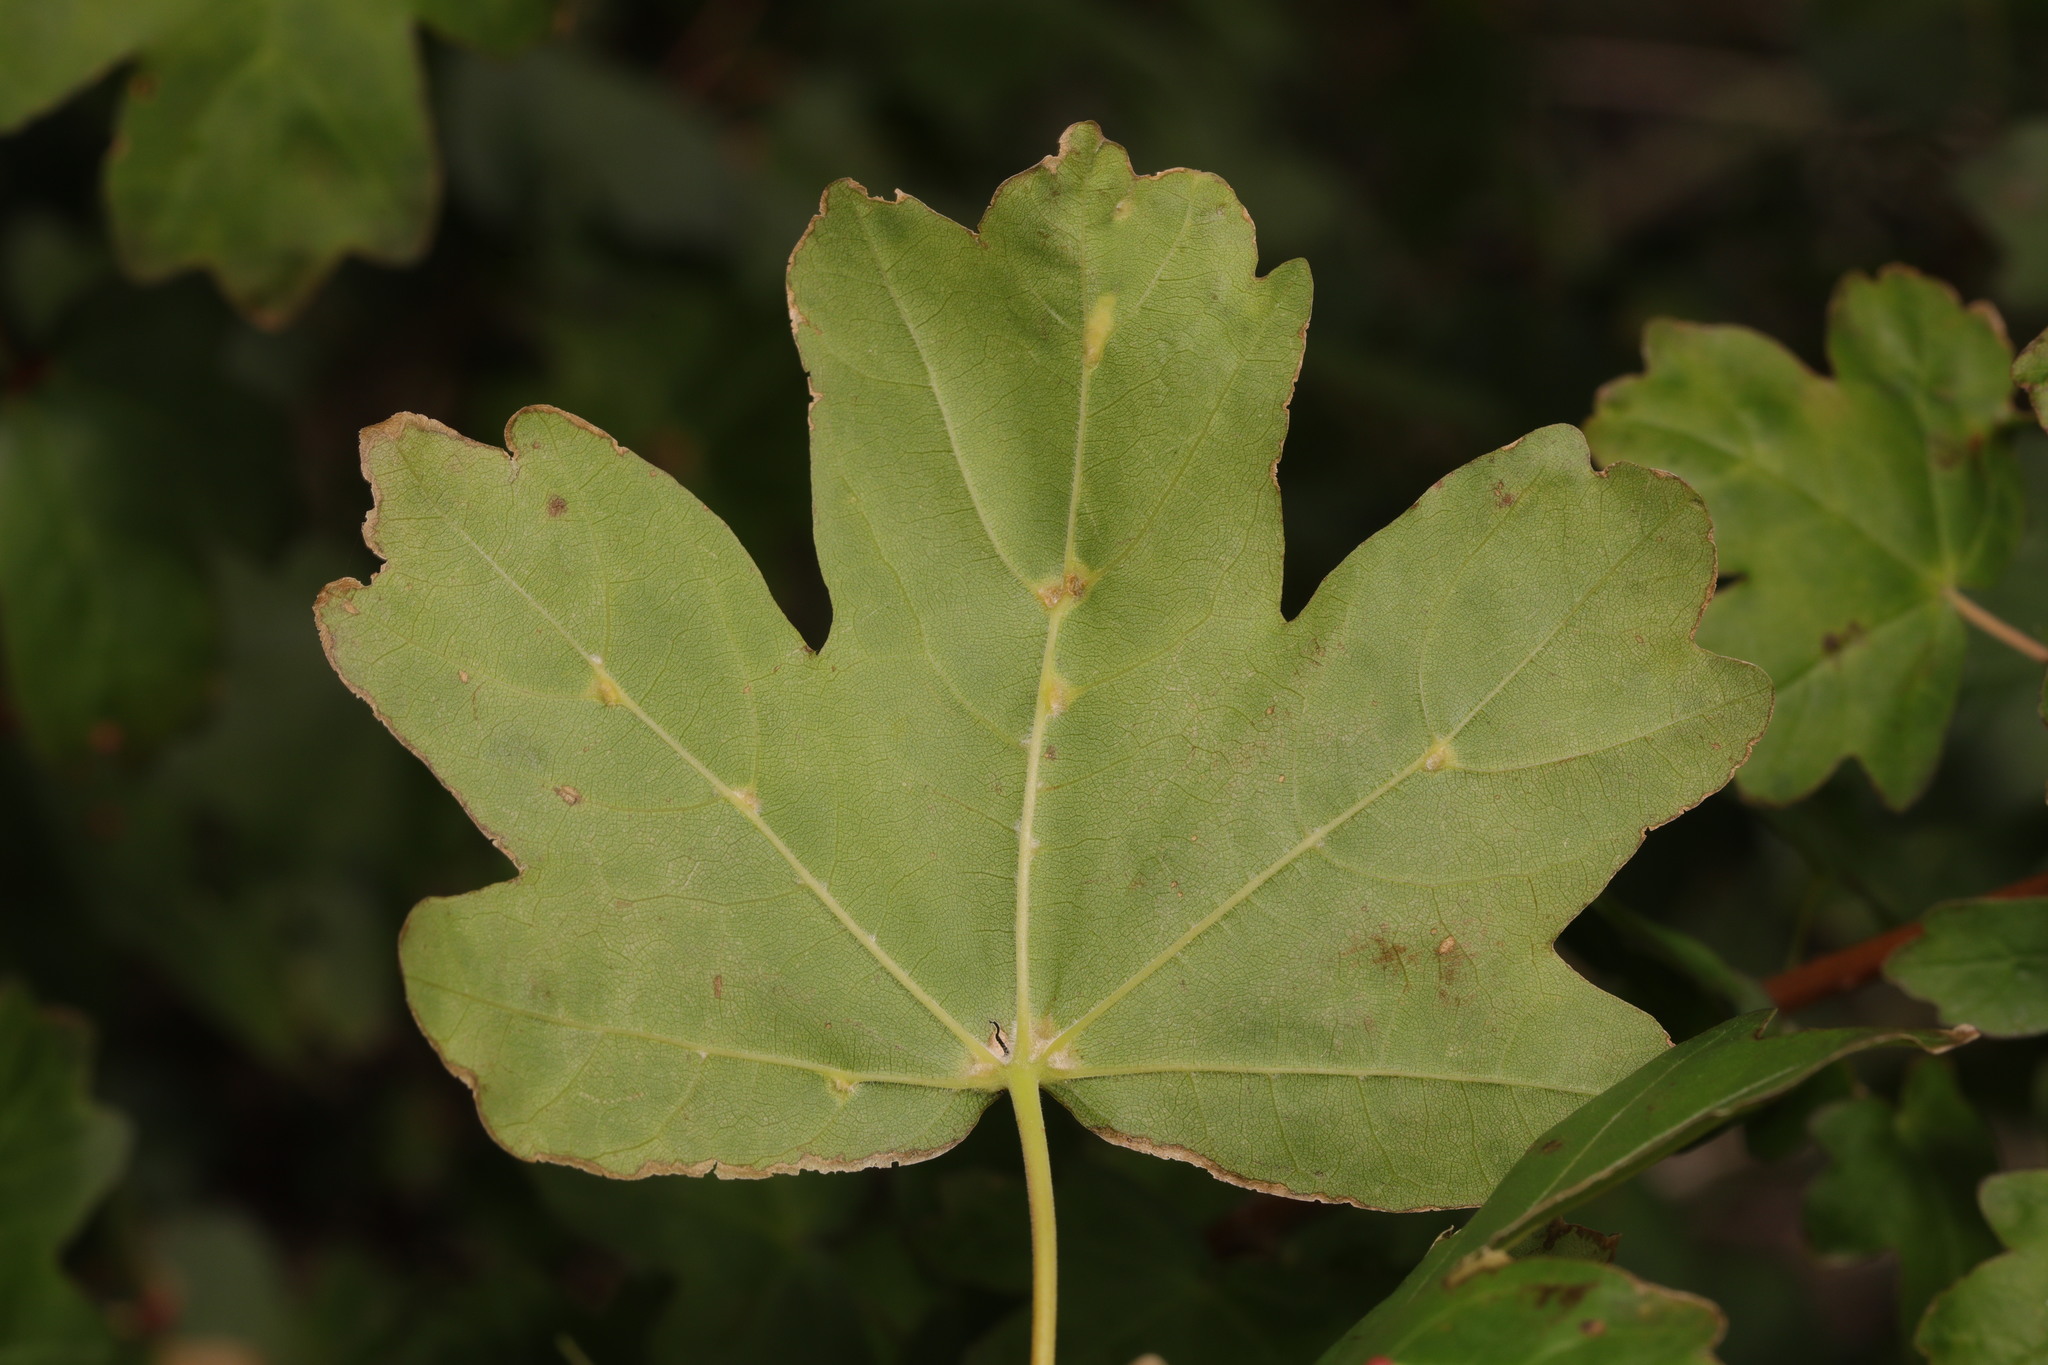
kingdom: Animalia
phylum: Arthropoda
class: Arachnida
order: Trombidiformes
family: Eriophyidae
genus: Aceria
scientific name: Aceria macrochelus
